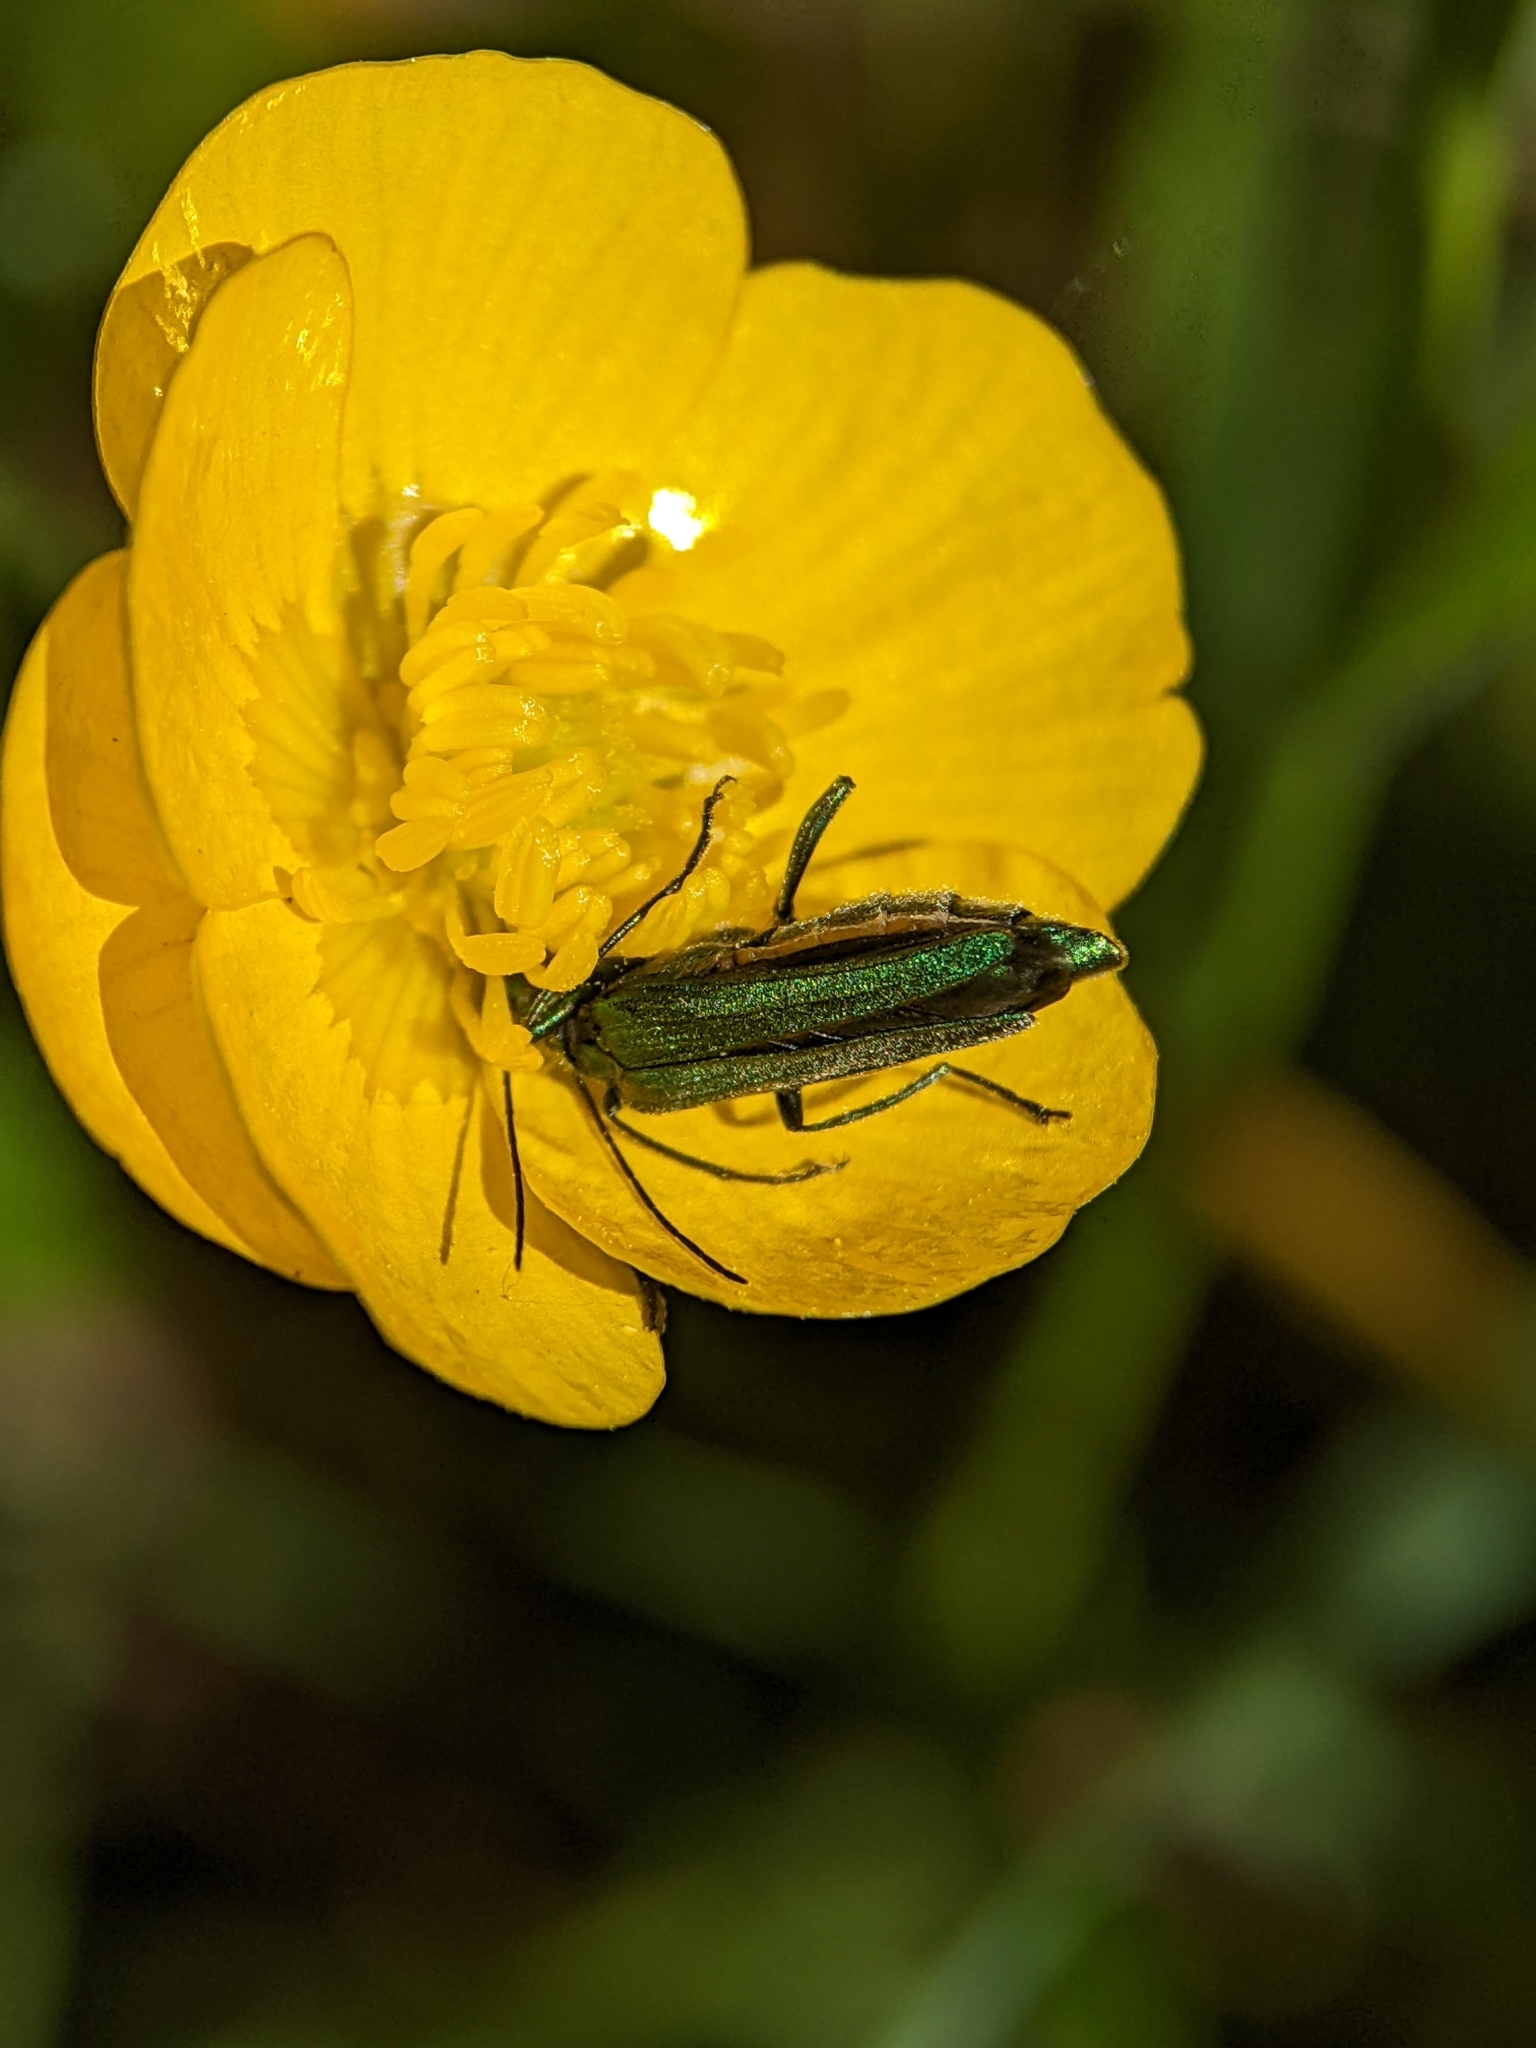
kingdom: Animalia
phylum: Arthropoda
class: Insecta
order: Coleoptera
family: Oedemeridae
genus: Oedemera
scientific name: Oedemera nobilis
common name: Swollen-thighed beetle
